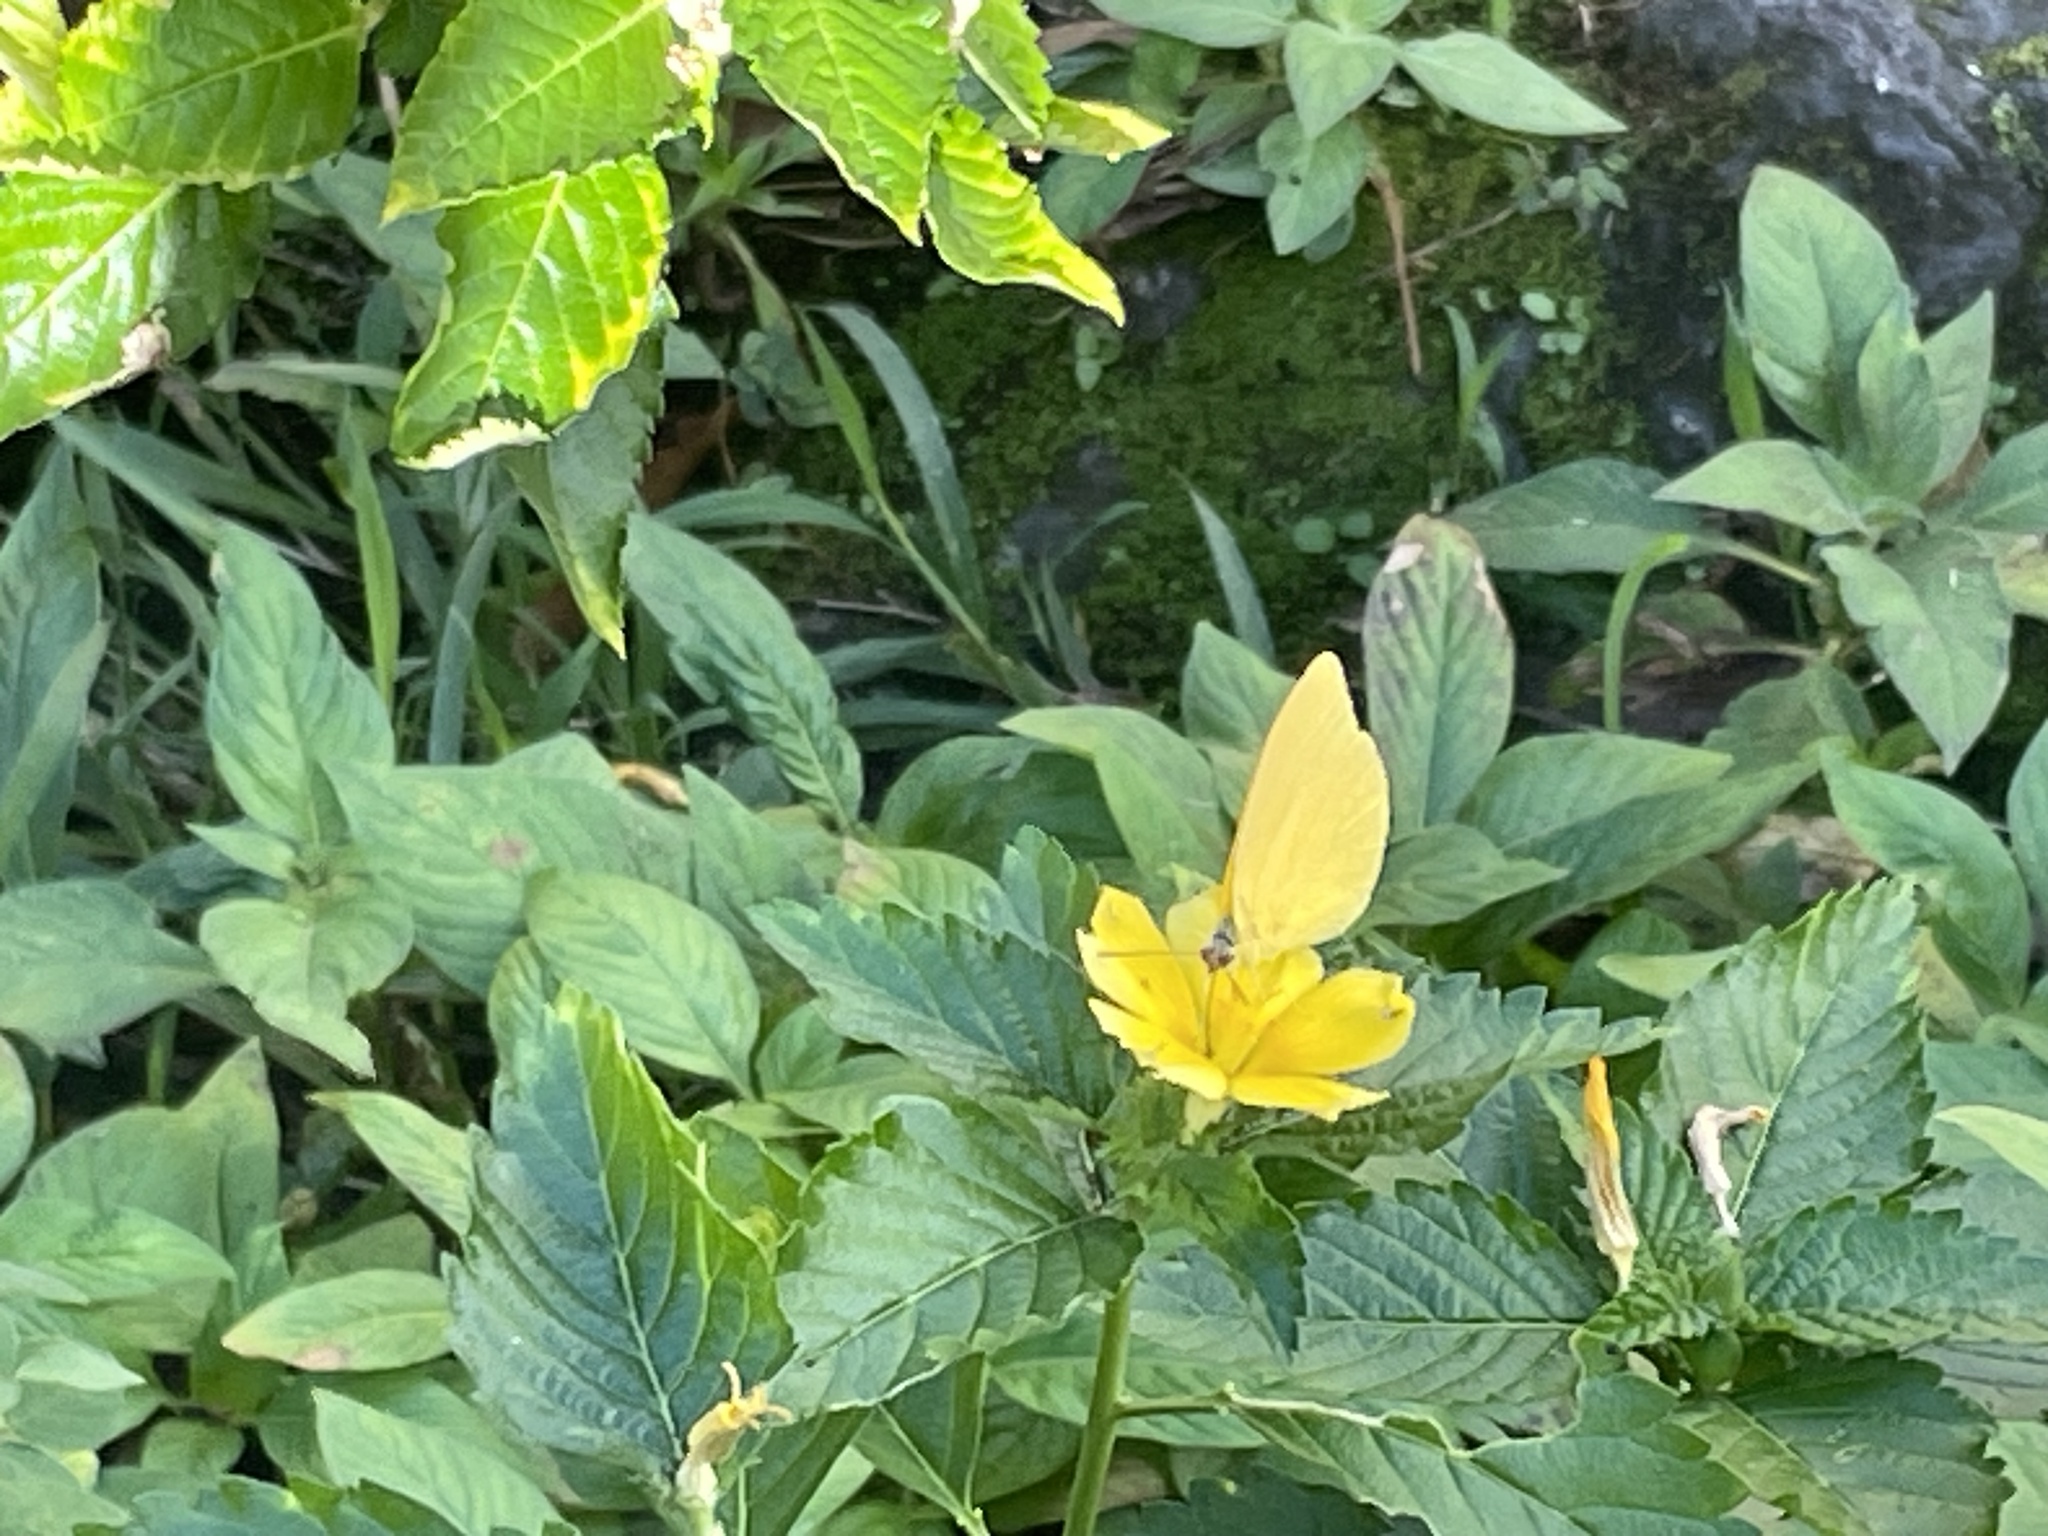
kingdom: Animalia
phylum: Arthropoda
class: Insecta
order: Lepidoptera
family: Pieridae
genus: Phoebis
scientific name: Phoebis agarithe
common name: Large orange sulphur
